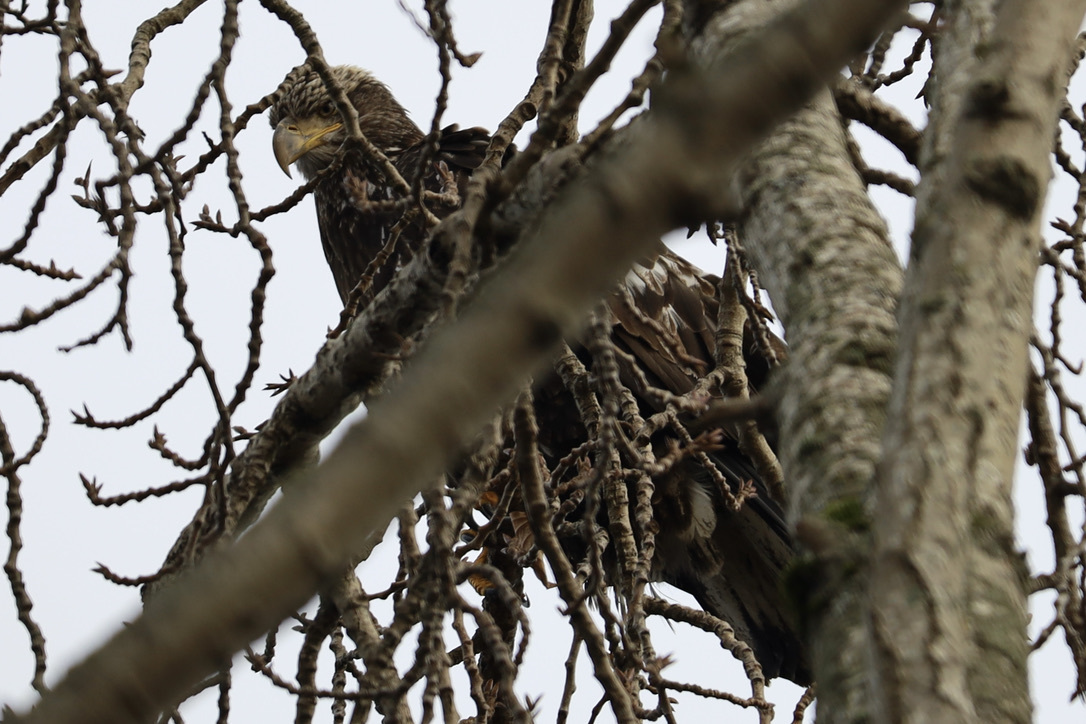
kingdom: Animalia
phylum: Chordata
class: Aves
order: Accipitriformes
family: Accipitridae
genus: Haliaeetus
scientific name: Haliaeetus leucocephalus
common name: Bald eagle
